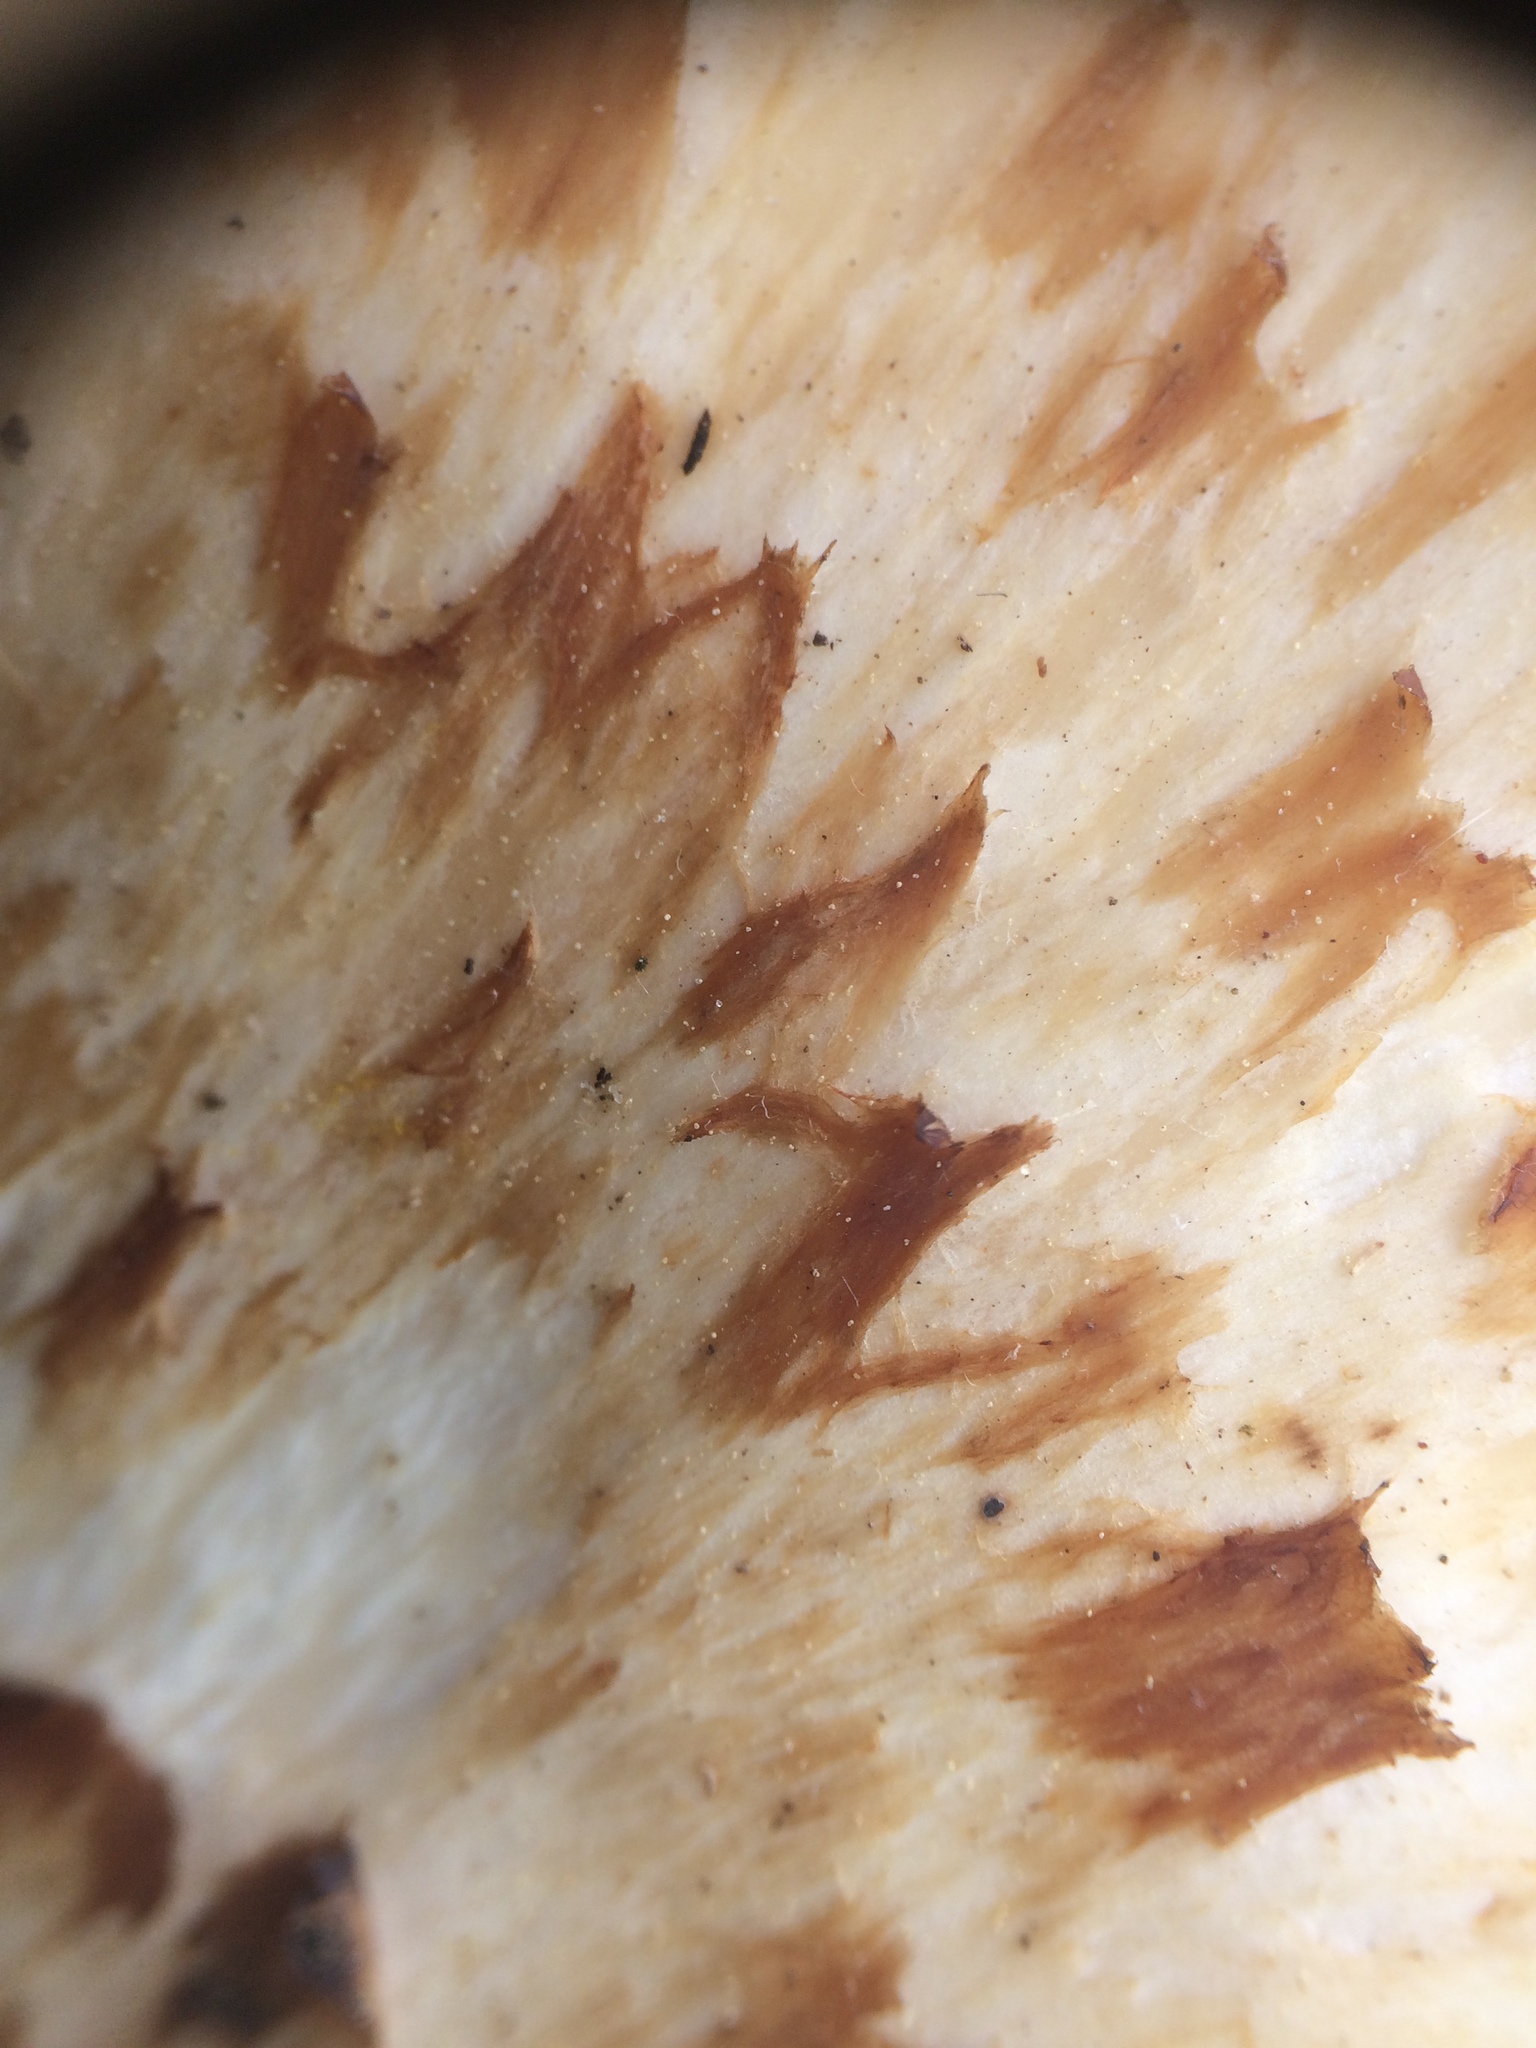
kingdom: Fungi
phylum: Basidiomycota
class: Agaricomycetes
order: Polyporales
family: Polyporaceae
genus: Cerioporus
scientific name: Cerioporus squamosus
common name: Dryad's saddle
